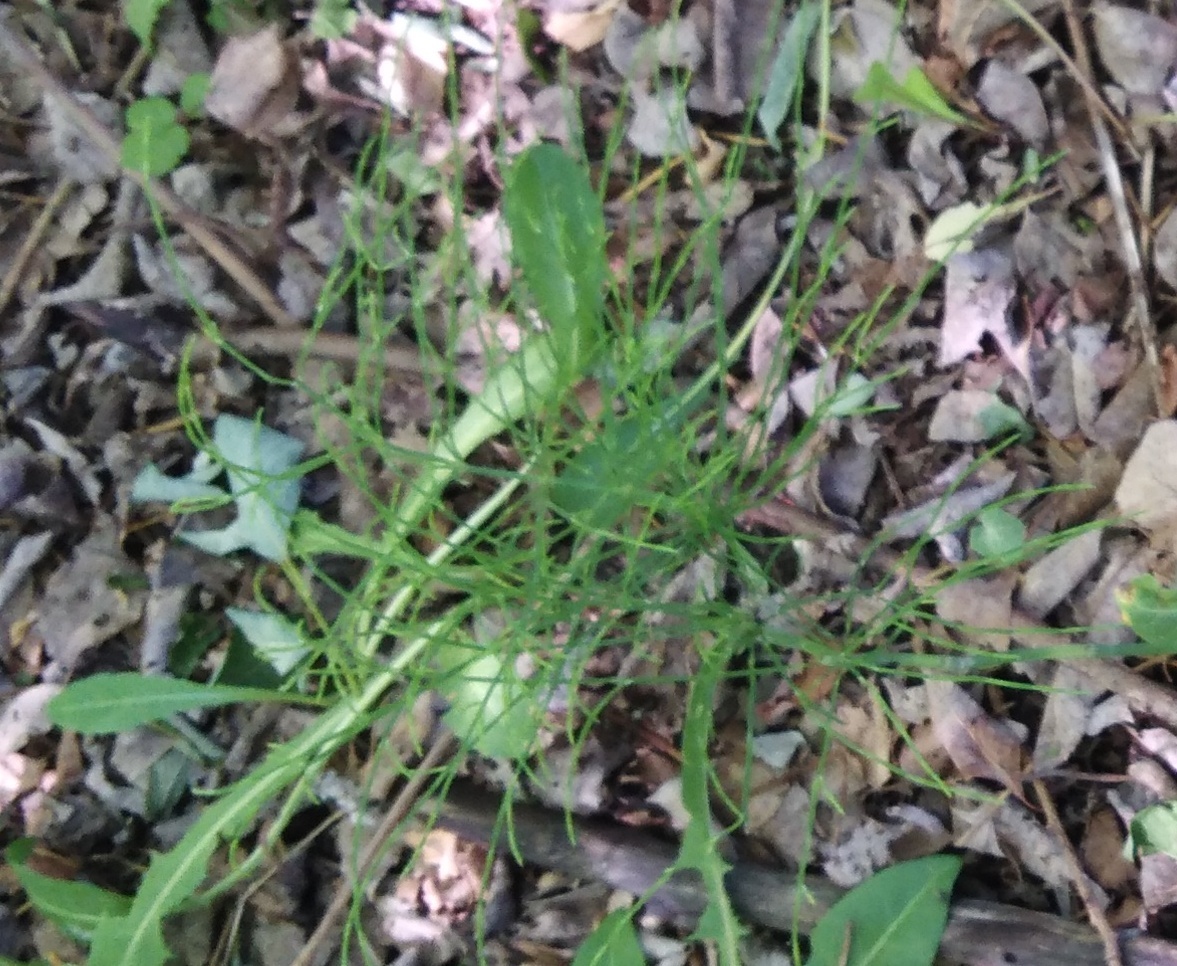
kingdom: Plantae
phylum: Tracheophyta
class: Polypodiopsida
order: Equisetales
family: Equisetaceae
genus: Equisetum
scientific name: Equisetum arvense
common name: Field horsetail
